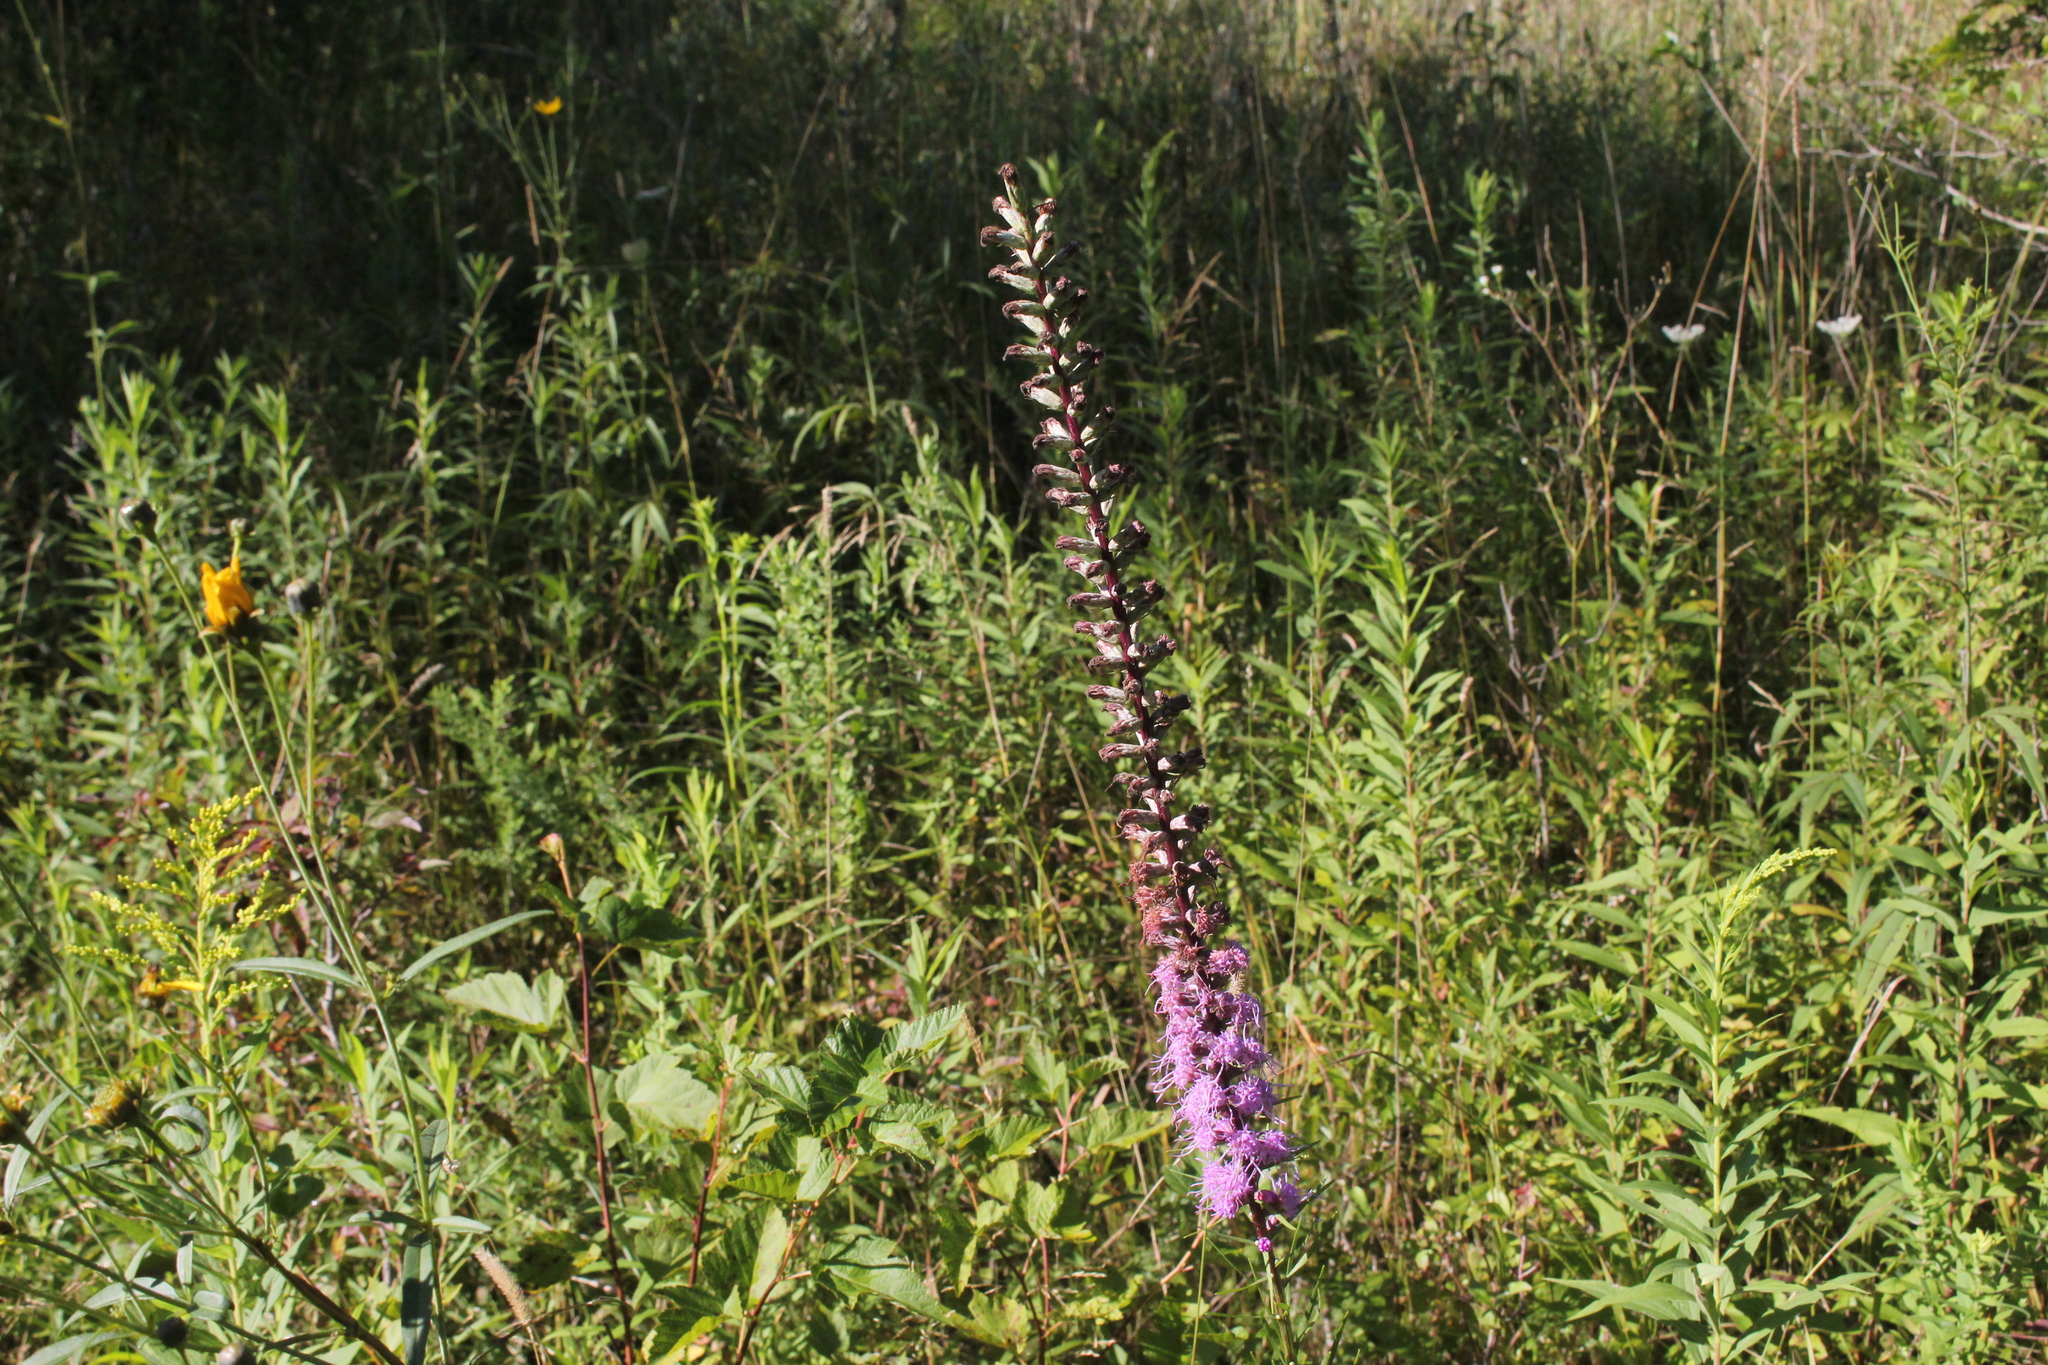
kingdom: Plantae
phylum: Tracheophyta
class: Magnoliopsida
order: Asterales
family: Asteraceae
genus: Liatris
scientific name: Liatris spicata
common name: Florist gayfeather
